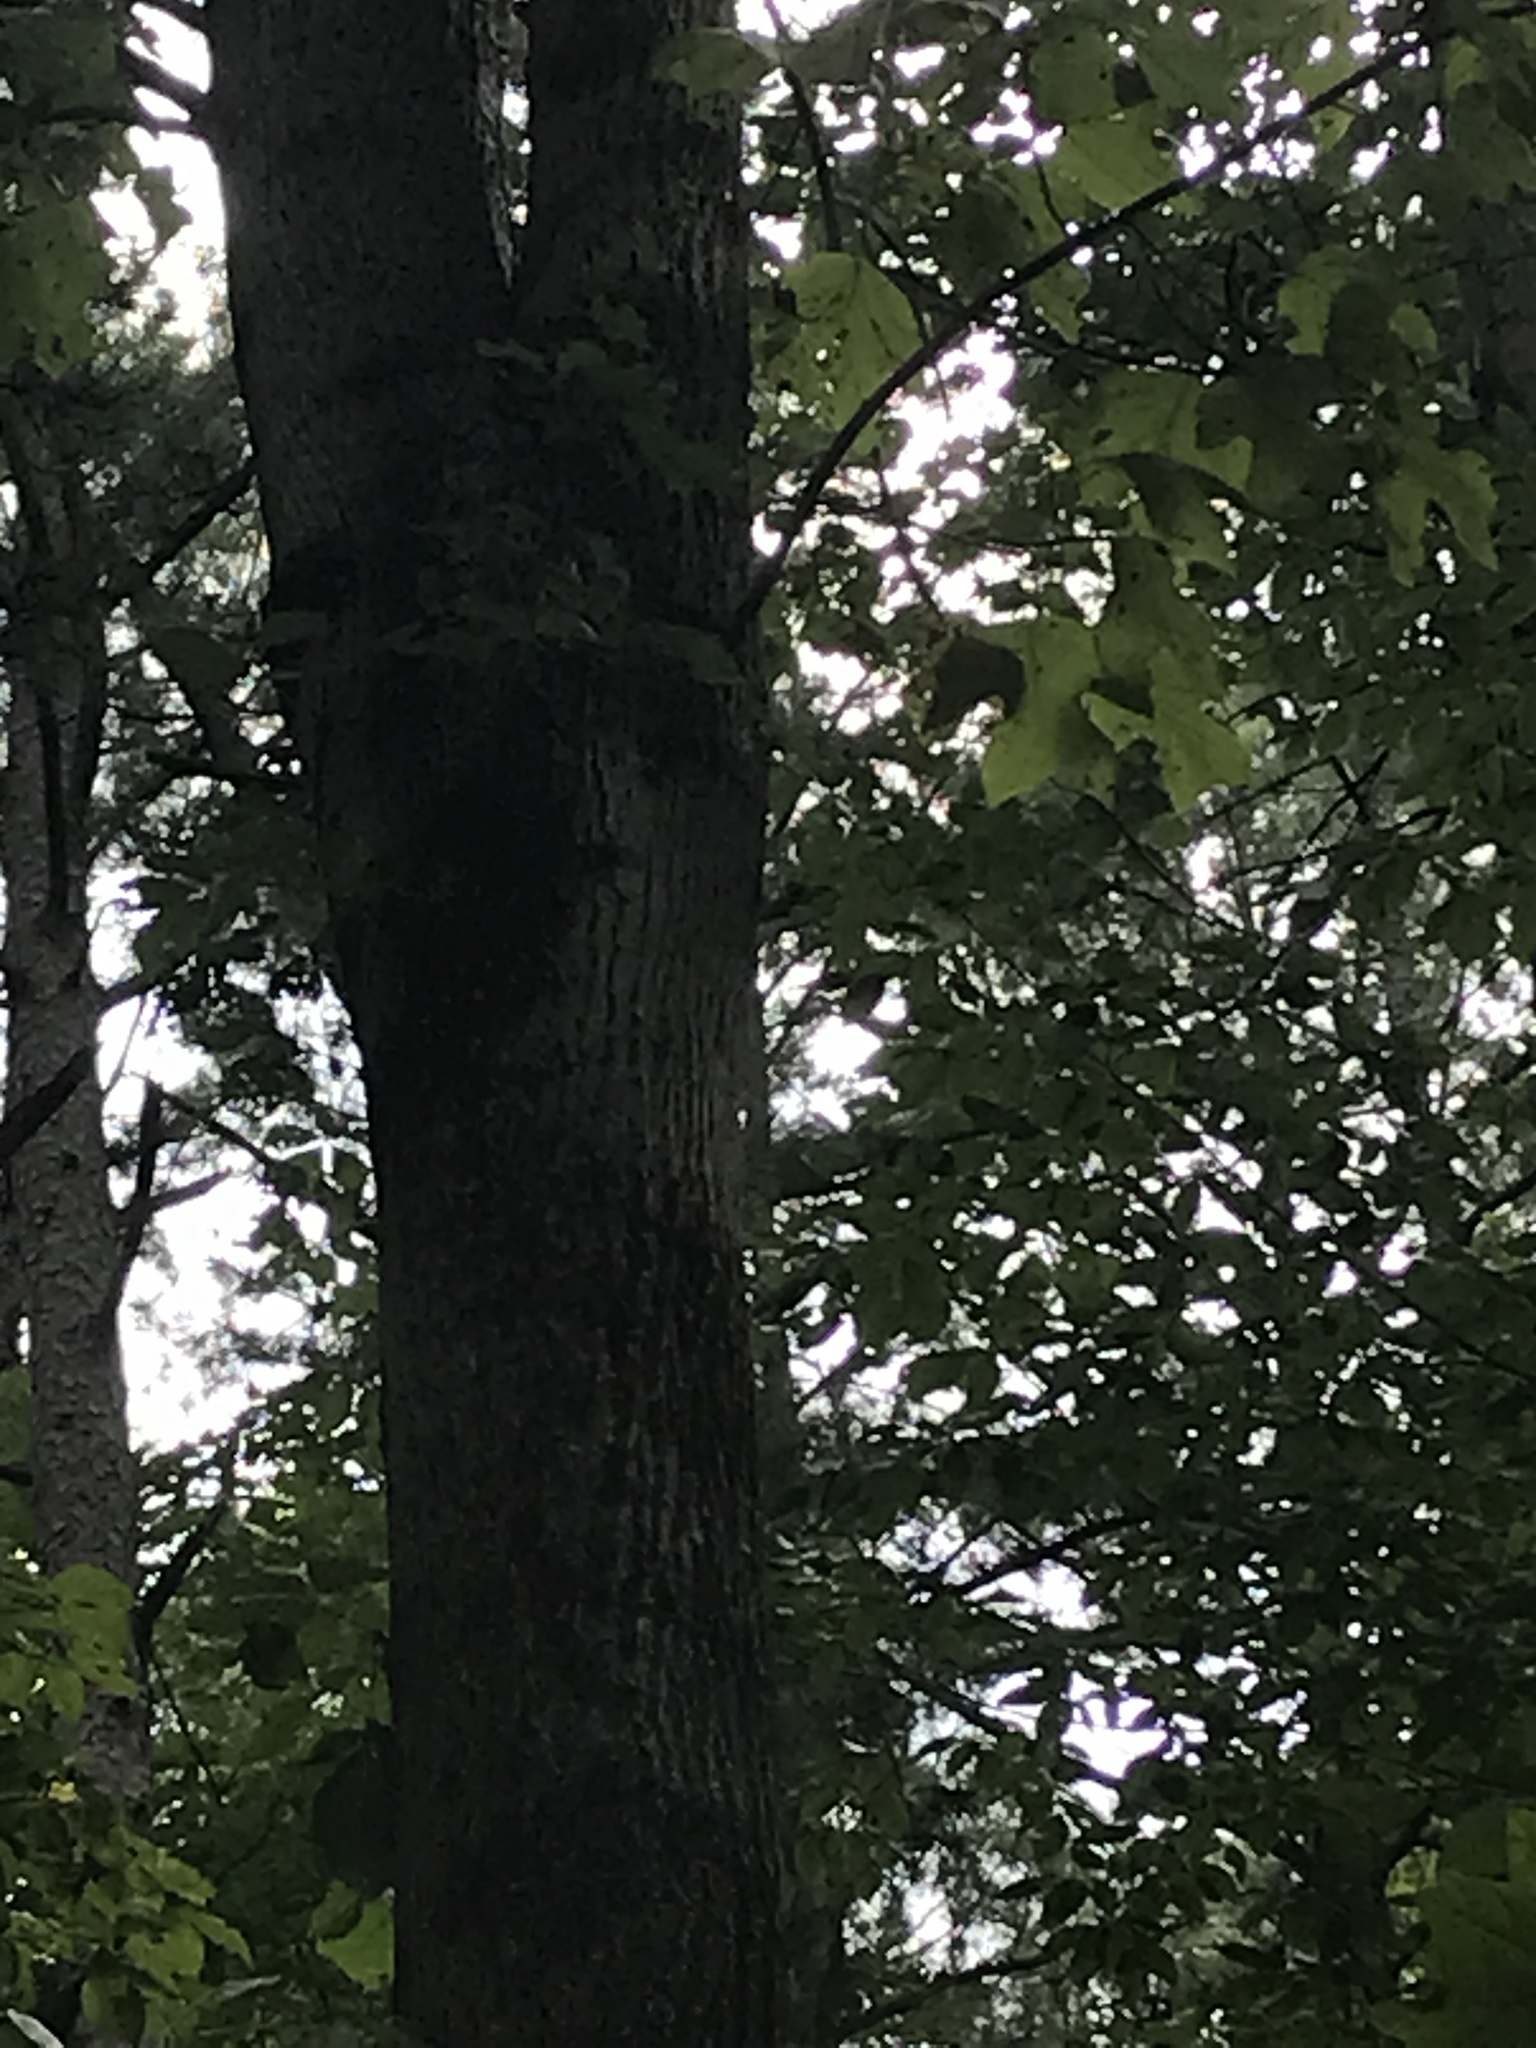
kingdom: Plantae
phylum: Tracheophyta
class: Magnoliopsida
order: Magnoliales
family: Magnoliaceae
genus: Liriodendron
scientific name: Liriodendron tulipifera
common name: Tulip tree
